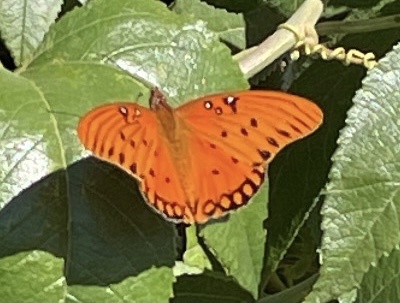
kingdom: Animalia
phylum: Arthropoda
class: Insecta
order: Lepidoptera
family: Nymphalidae
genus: Dione
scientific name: Dione vanillae
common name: Gulf fritillary
